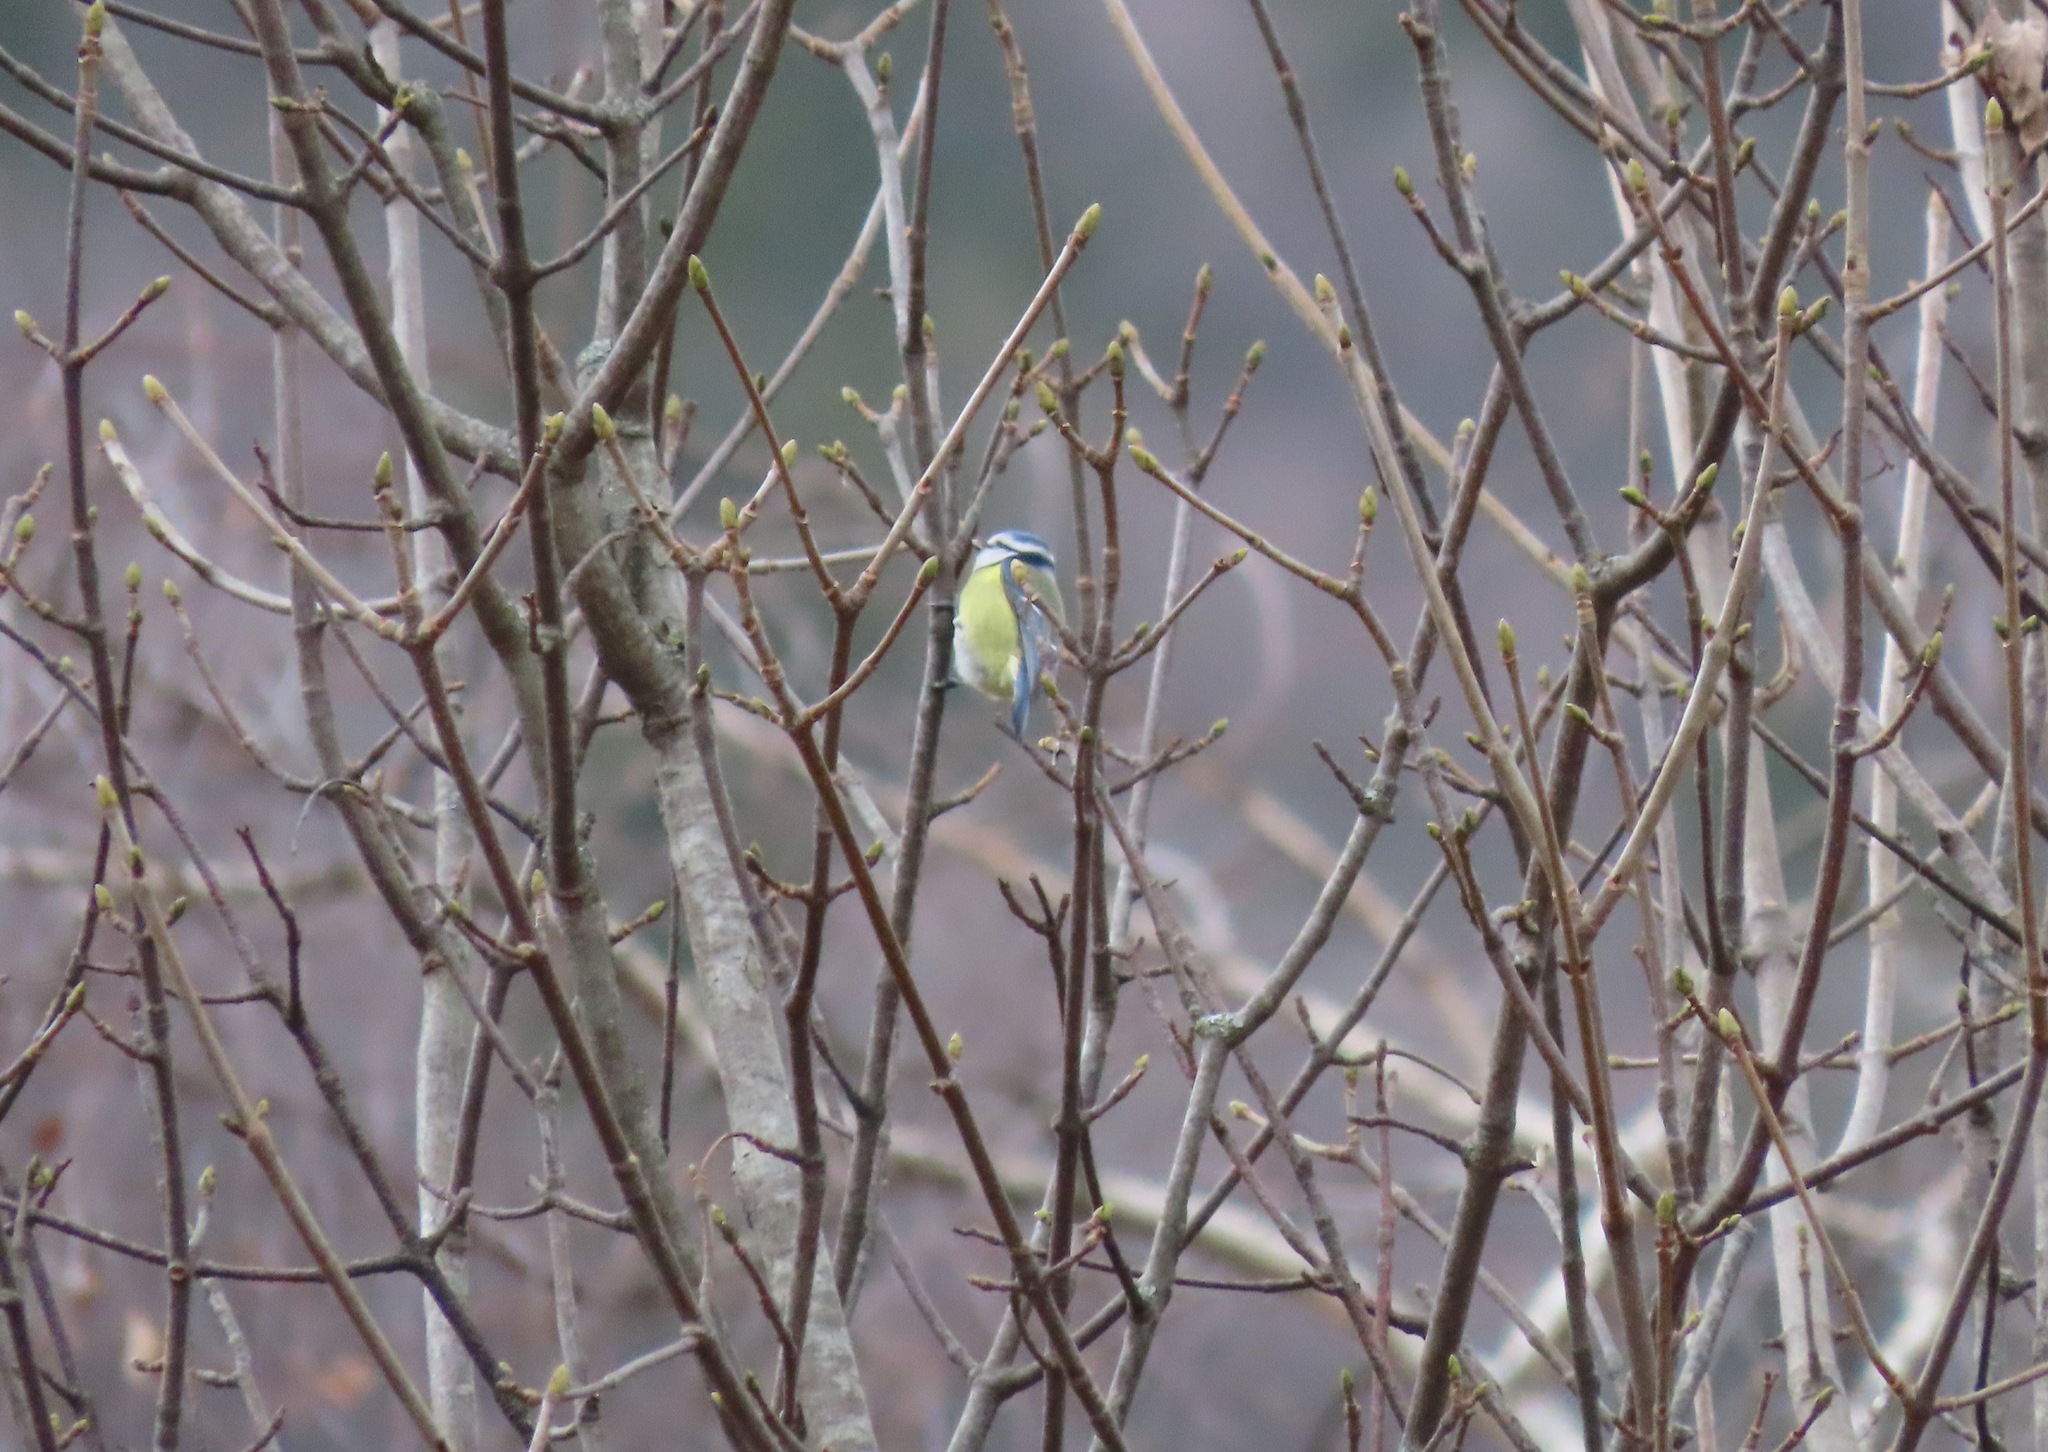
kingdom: Animalia
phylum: Chordata
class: Aves
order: Passeriformes
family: Paridae
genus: Cyanistes
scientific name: Cyanistes caeruleus
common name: Eurasian blue tit
